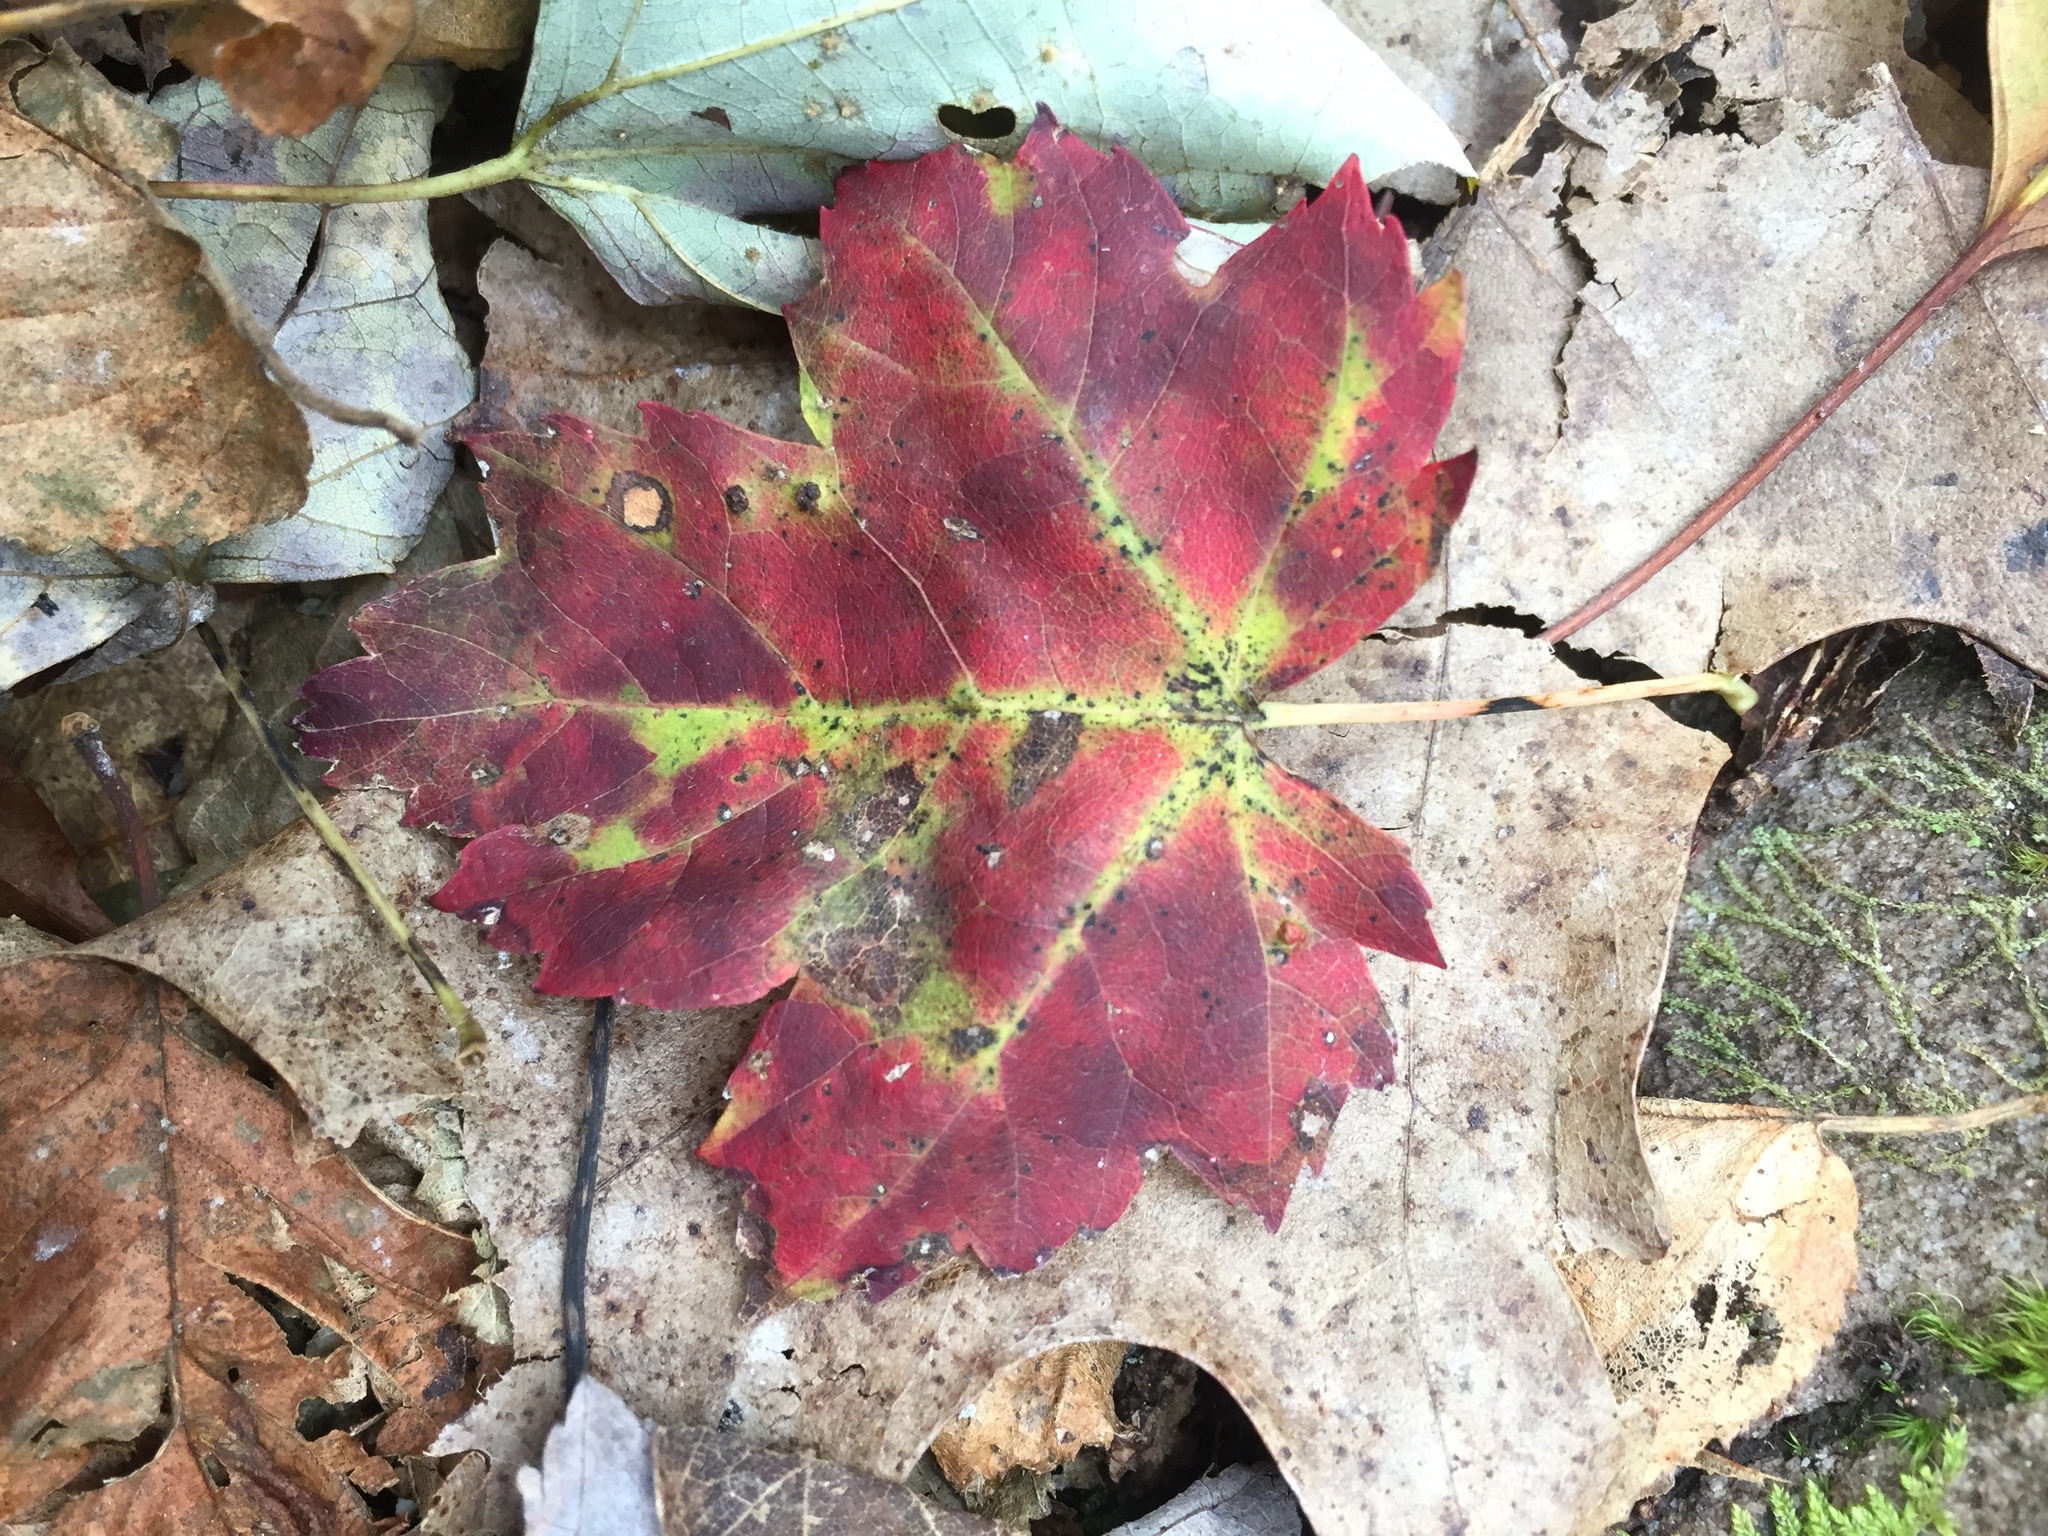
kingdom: Plantae
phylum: Tracheophyta
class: Magnoliopsida
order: Sapindales
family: Sapindaceae
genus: Acer
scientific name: Acer rubrum
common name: Red maple
